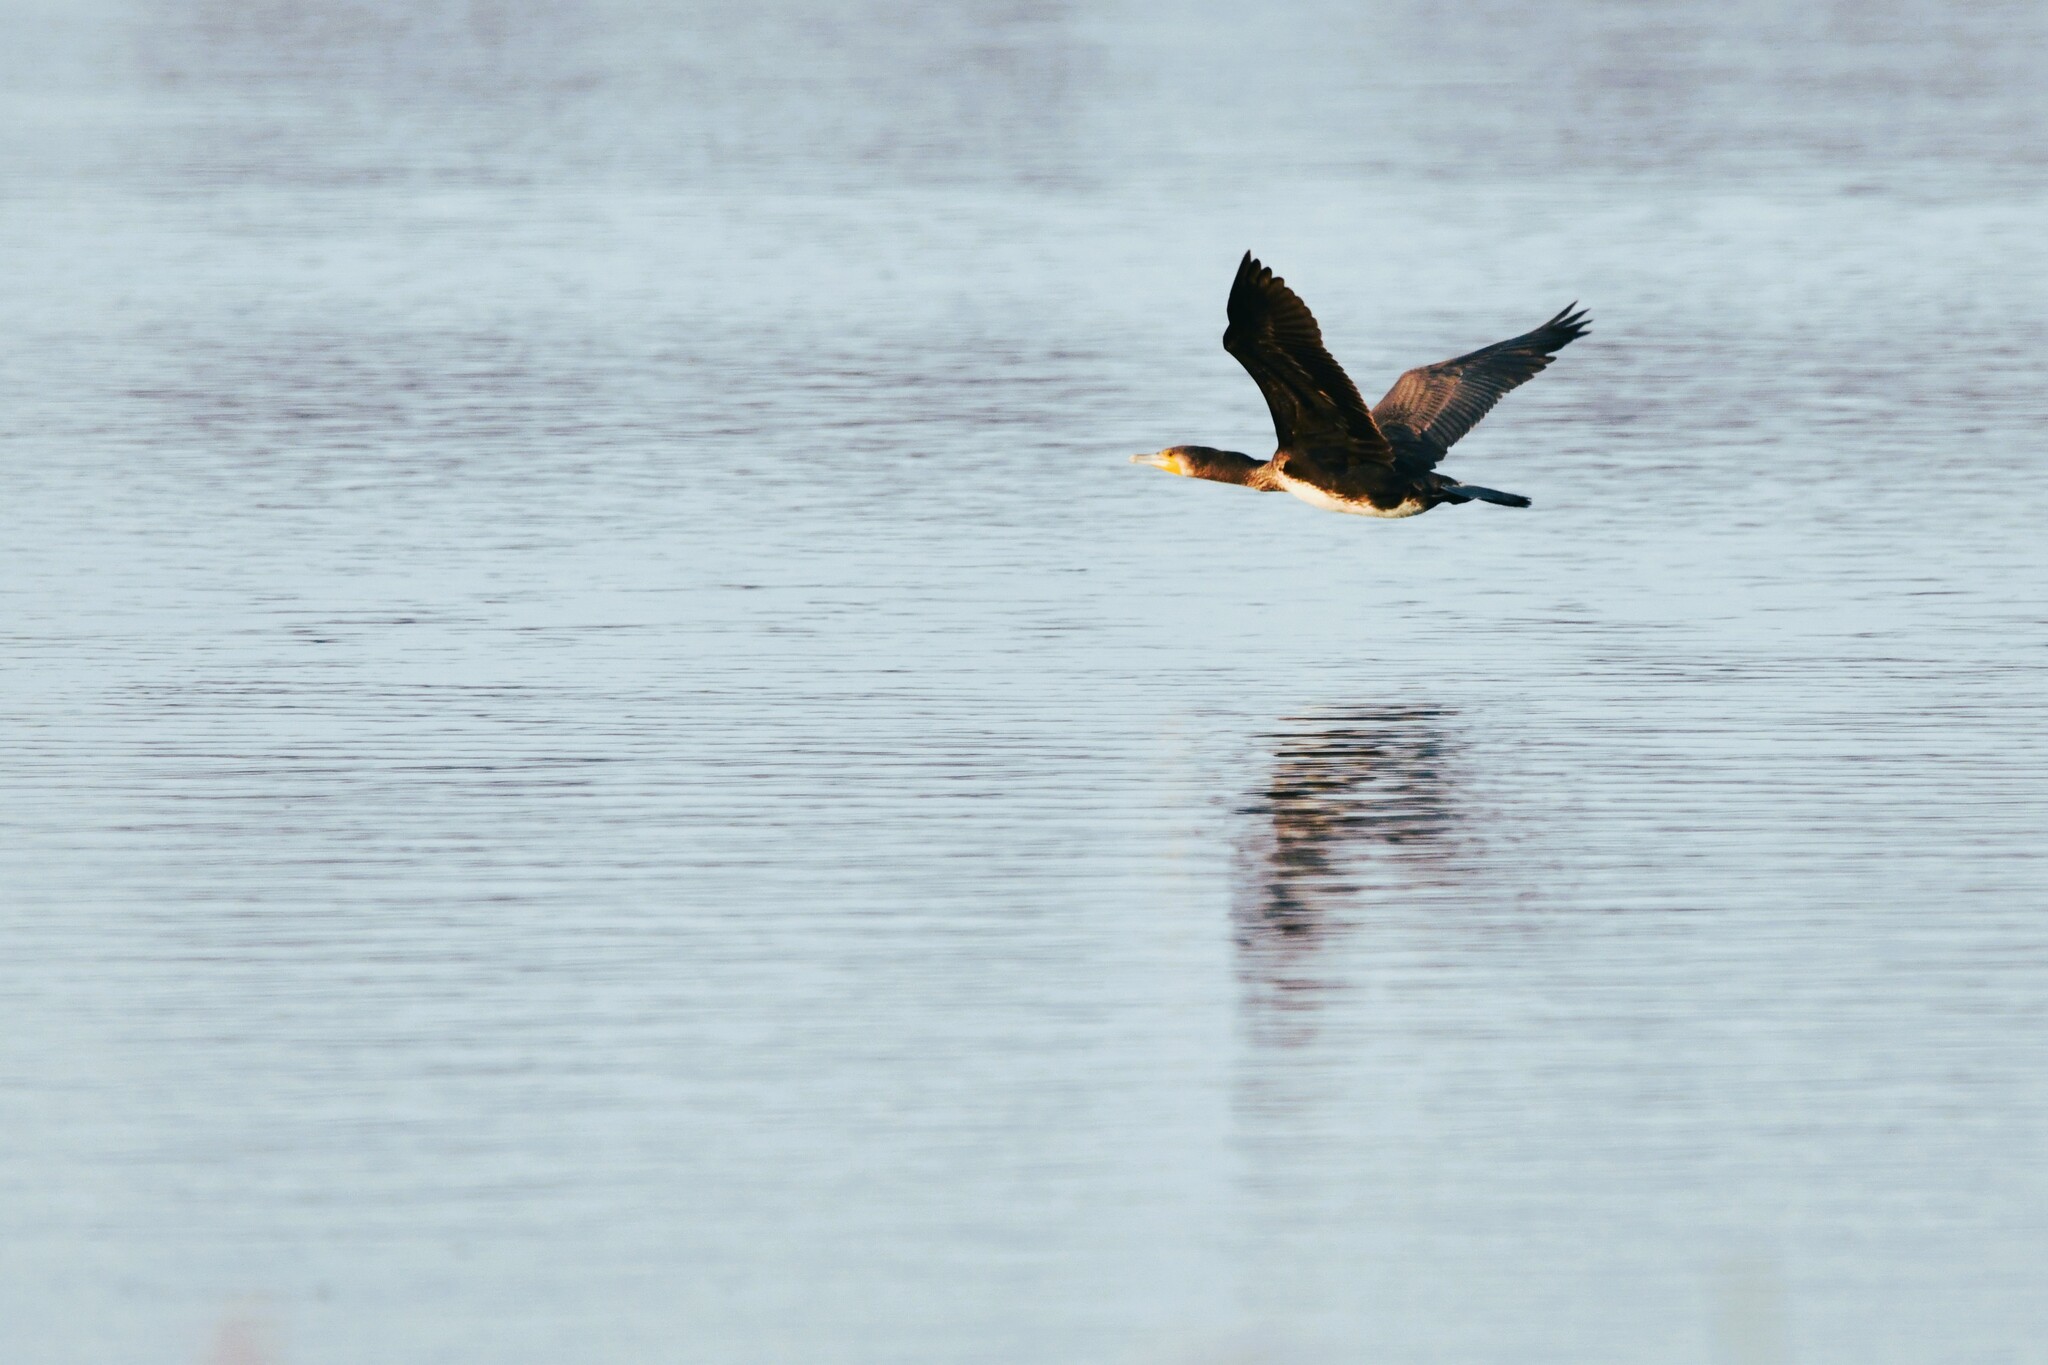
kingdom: Animalia
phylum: Chordata
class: Aves
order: Suliformes
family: Phalacrocoracidae
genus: Phalacrocorax
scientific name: Phalacrocorax carbo
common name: Great cormorant
